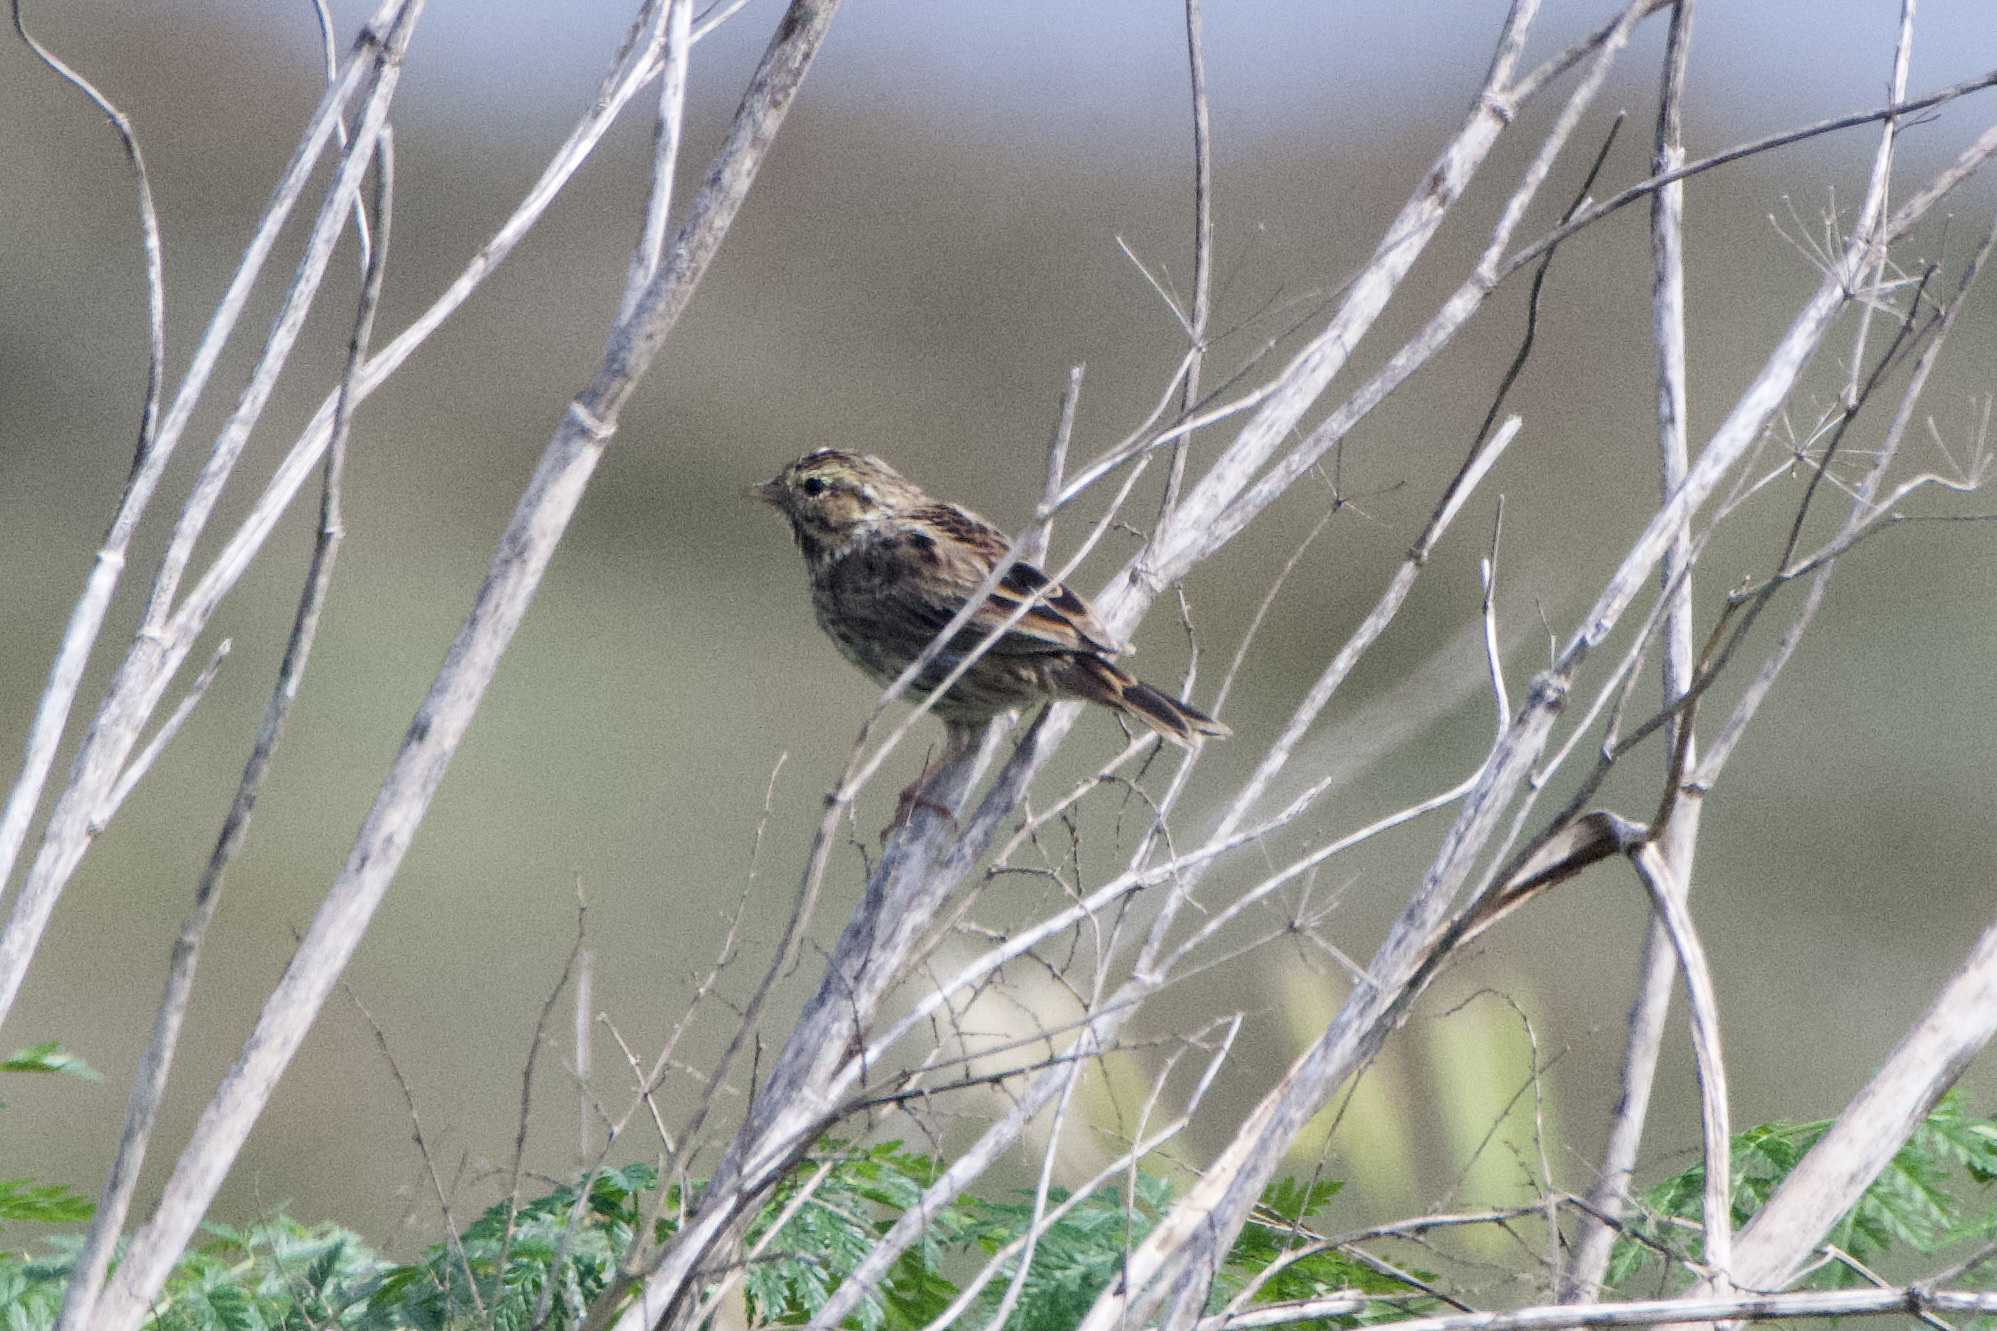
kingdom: Animalia
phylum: Chordata
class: Aves
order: Passeriformes
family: Passerellidae
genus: Passerculus
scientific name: Passerculus sandwichensis
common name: Savannah sparrow
